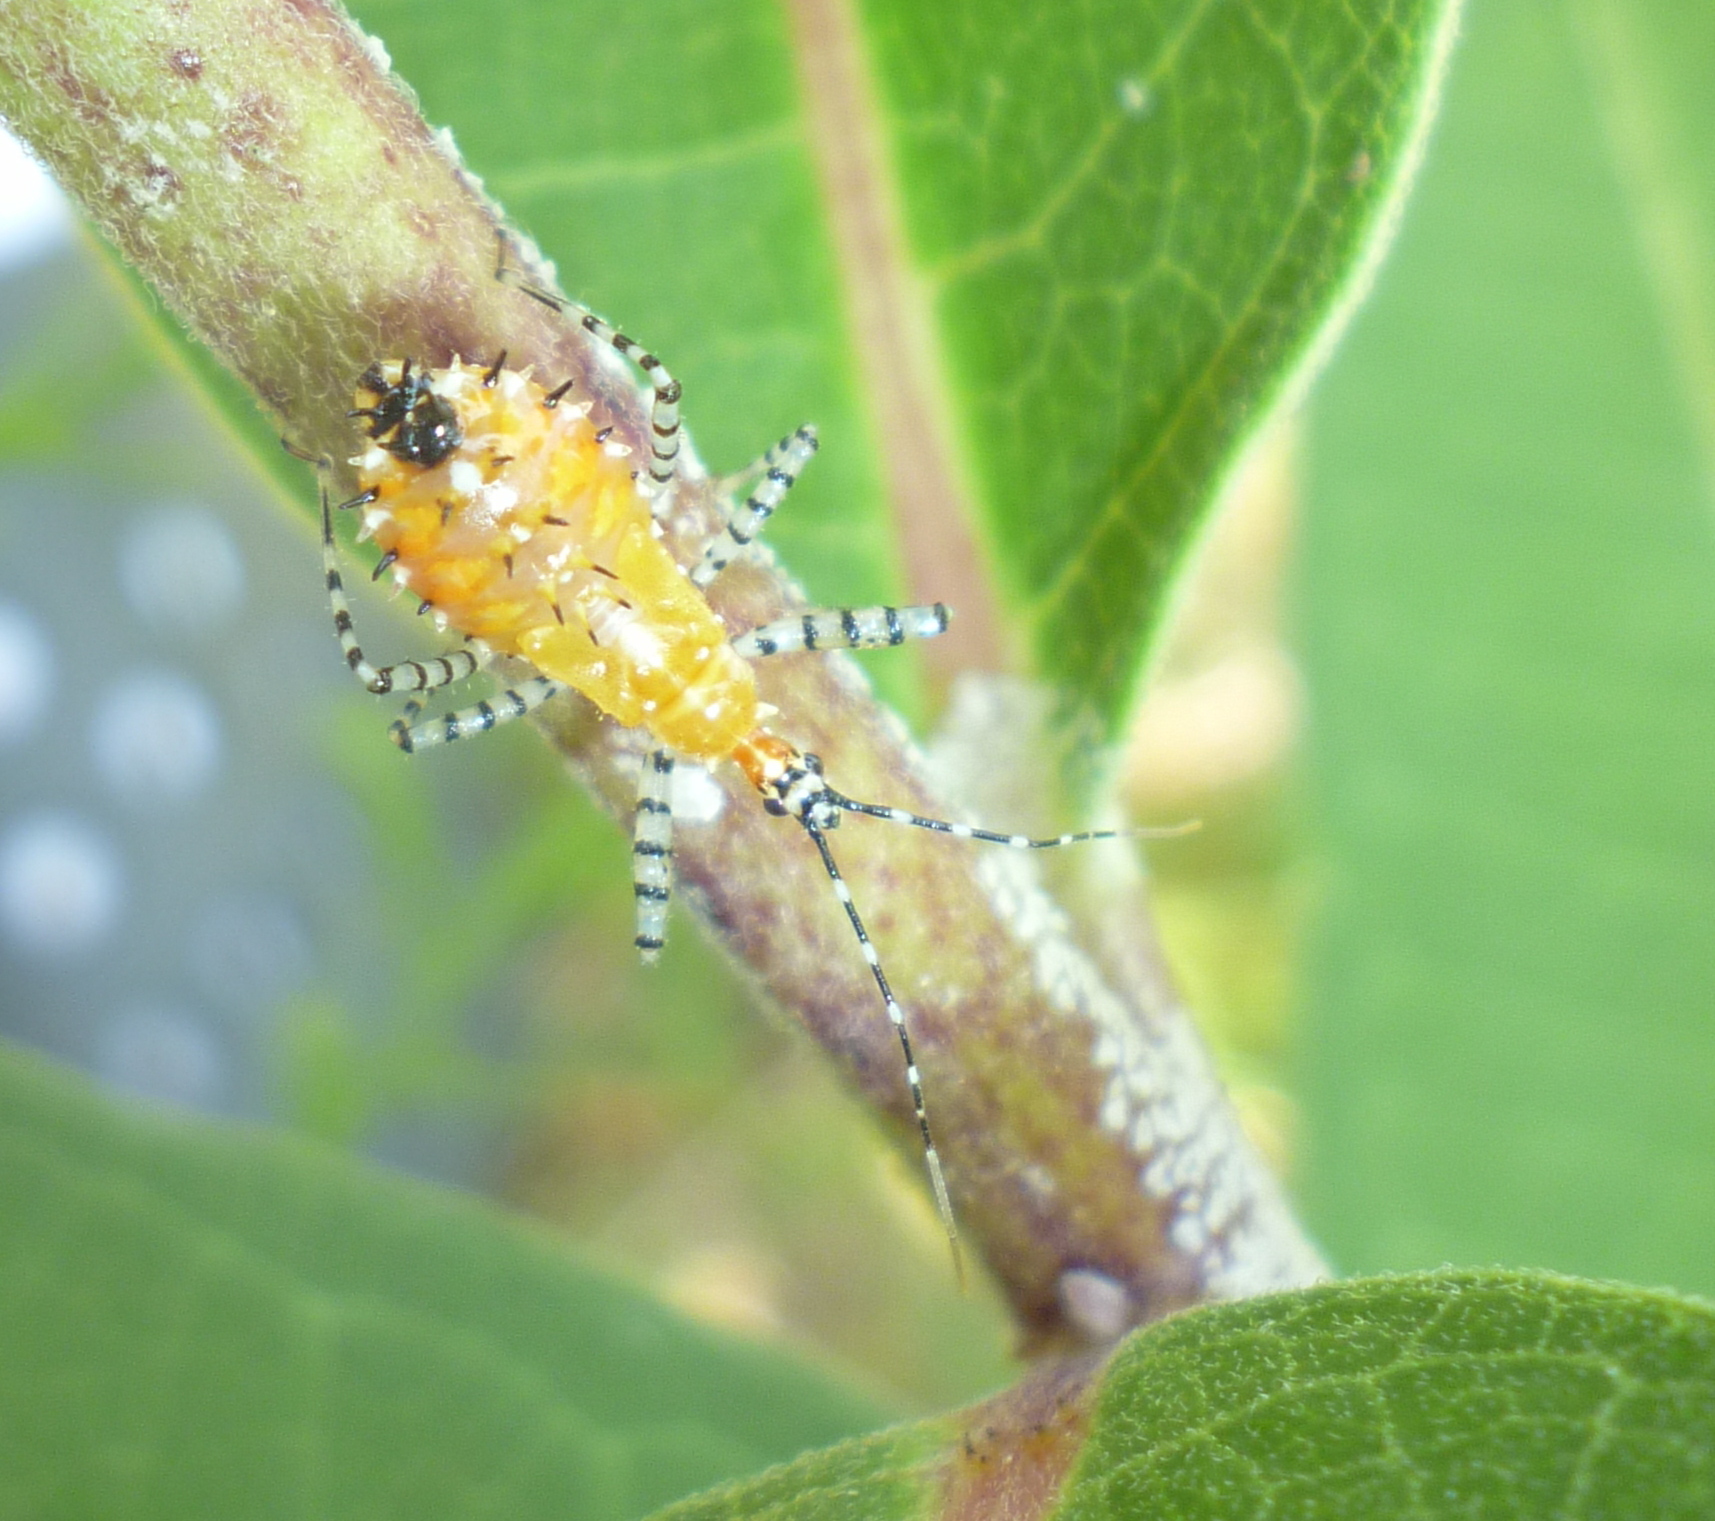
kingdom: Animalia
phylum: Arthropoda
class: Insecta
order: Hemiptera
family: Reduviidae
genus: Pselliopus
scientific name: Pselliopus cinctus
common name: Ringed assassin bug
